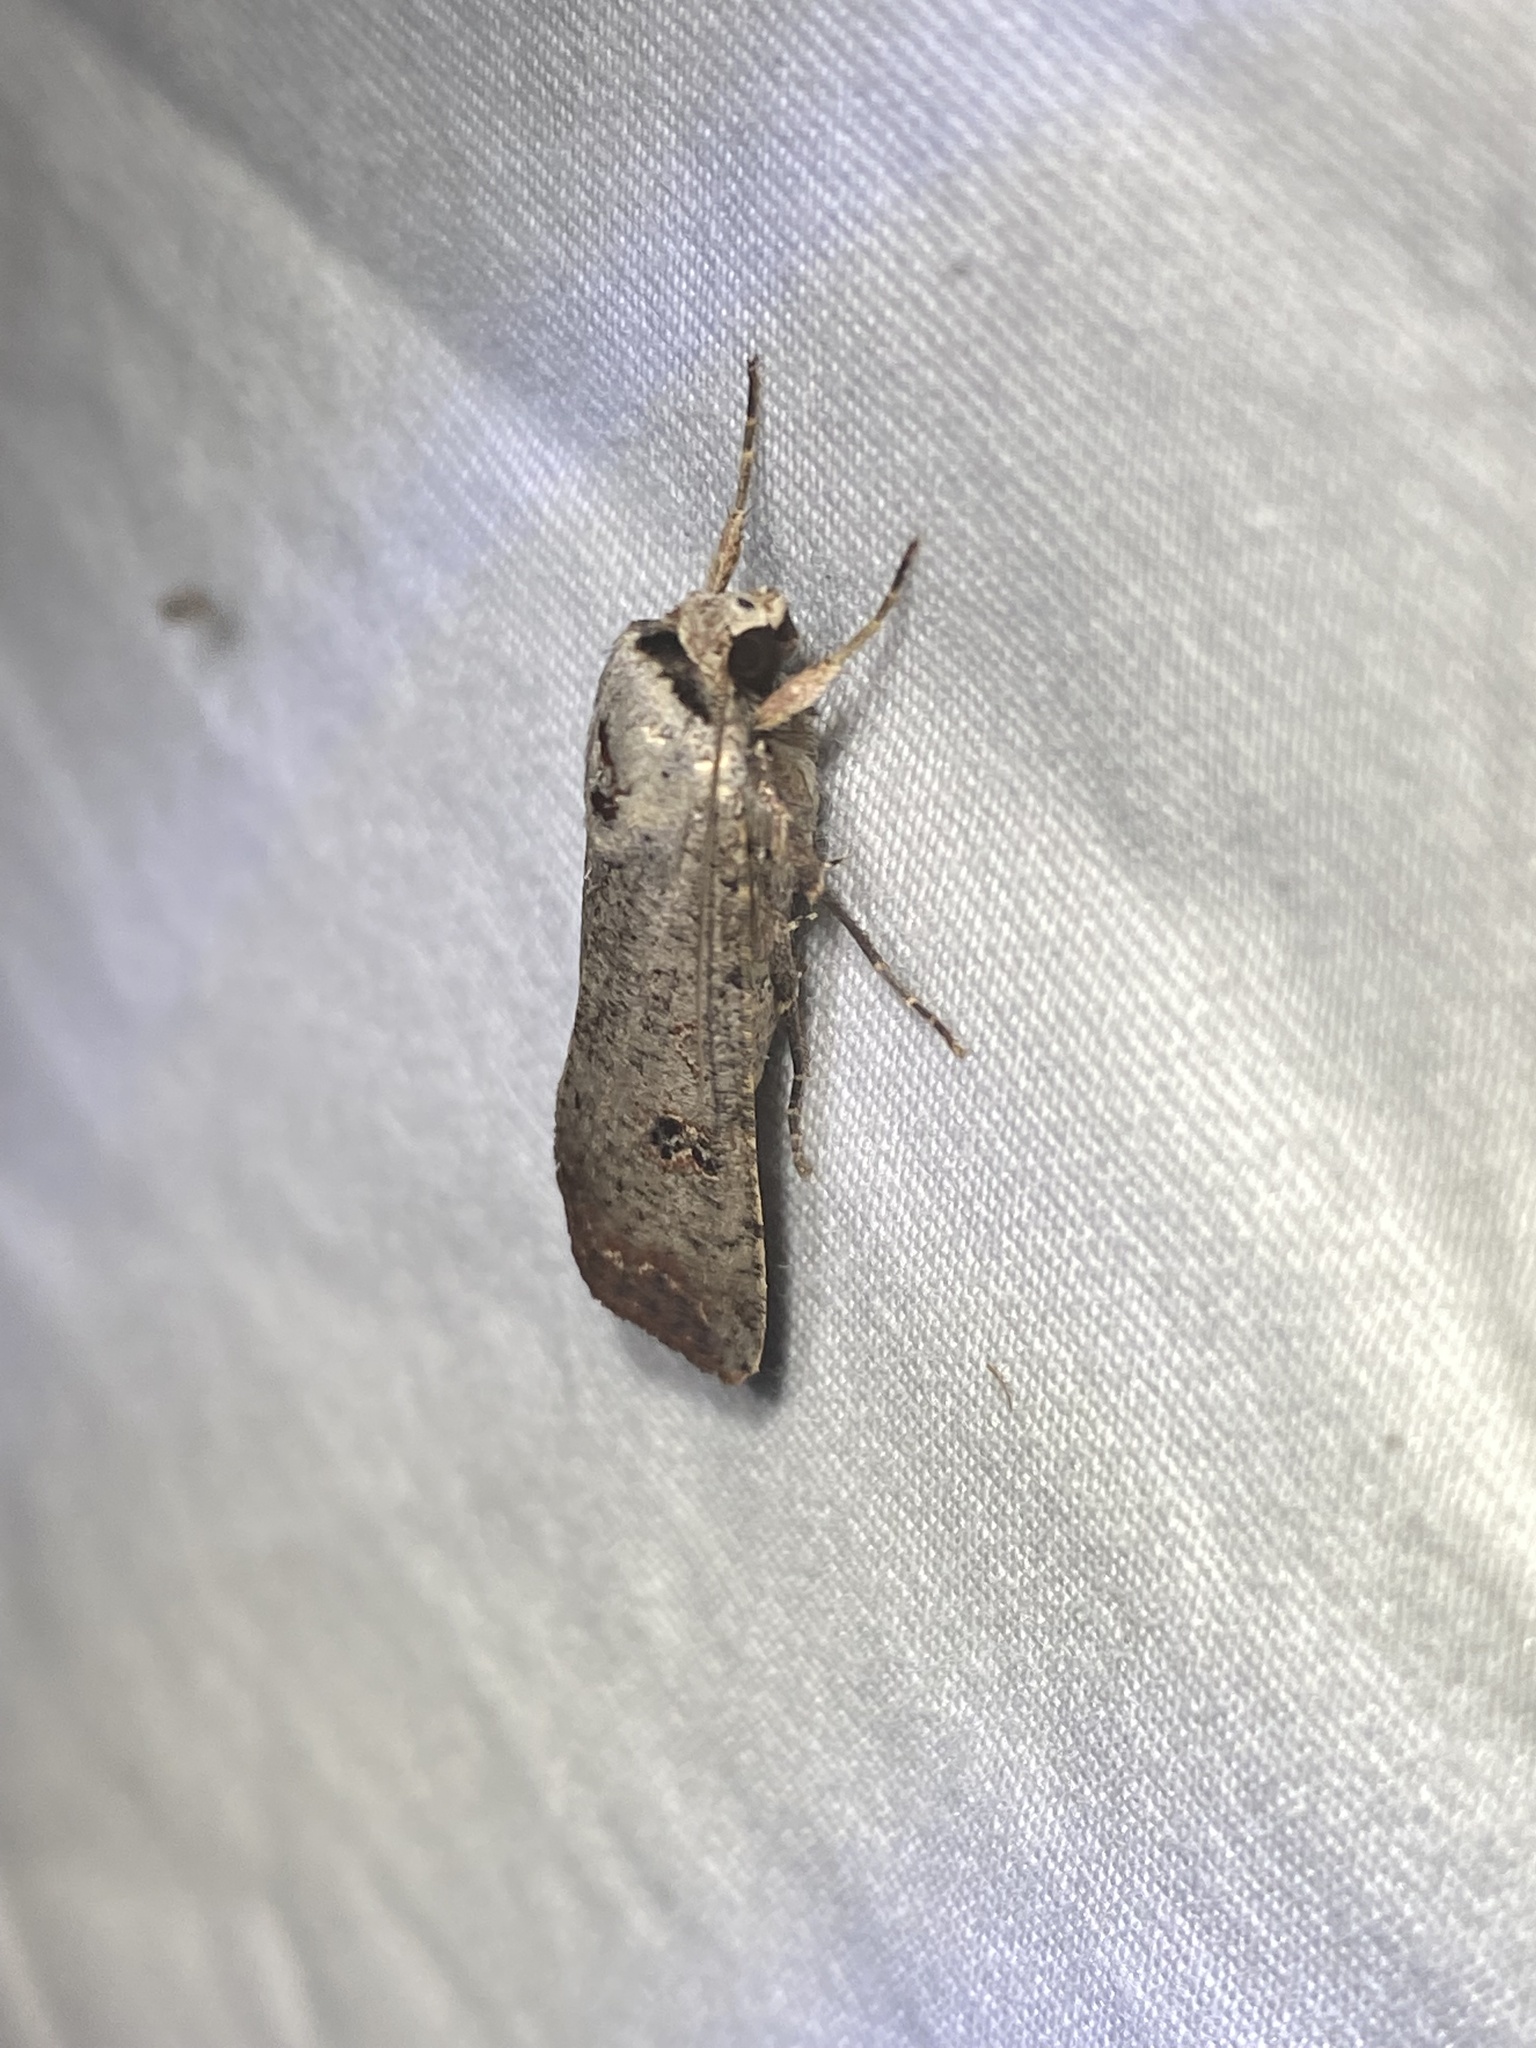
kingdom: Animalia
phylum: Arthropoda
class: Insecta
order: Lepidoptera
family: Noctuidae
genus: Anicla
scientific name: Anicla infecta
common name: Green cutworm
